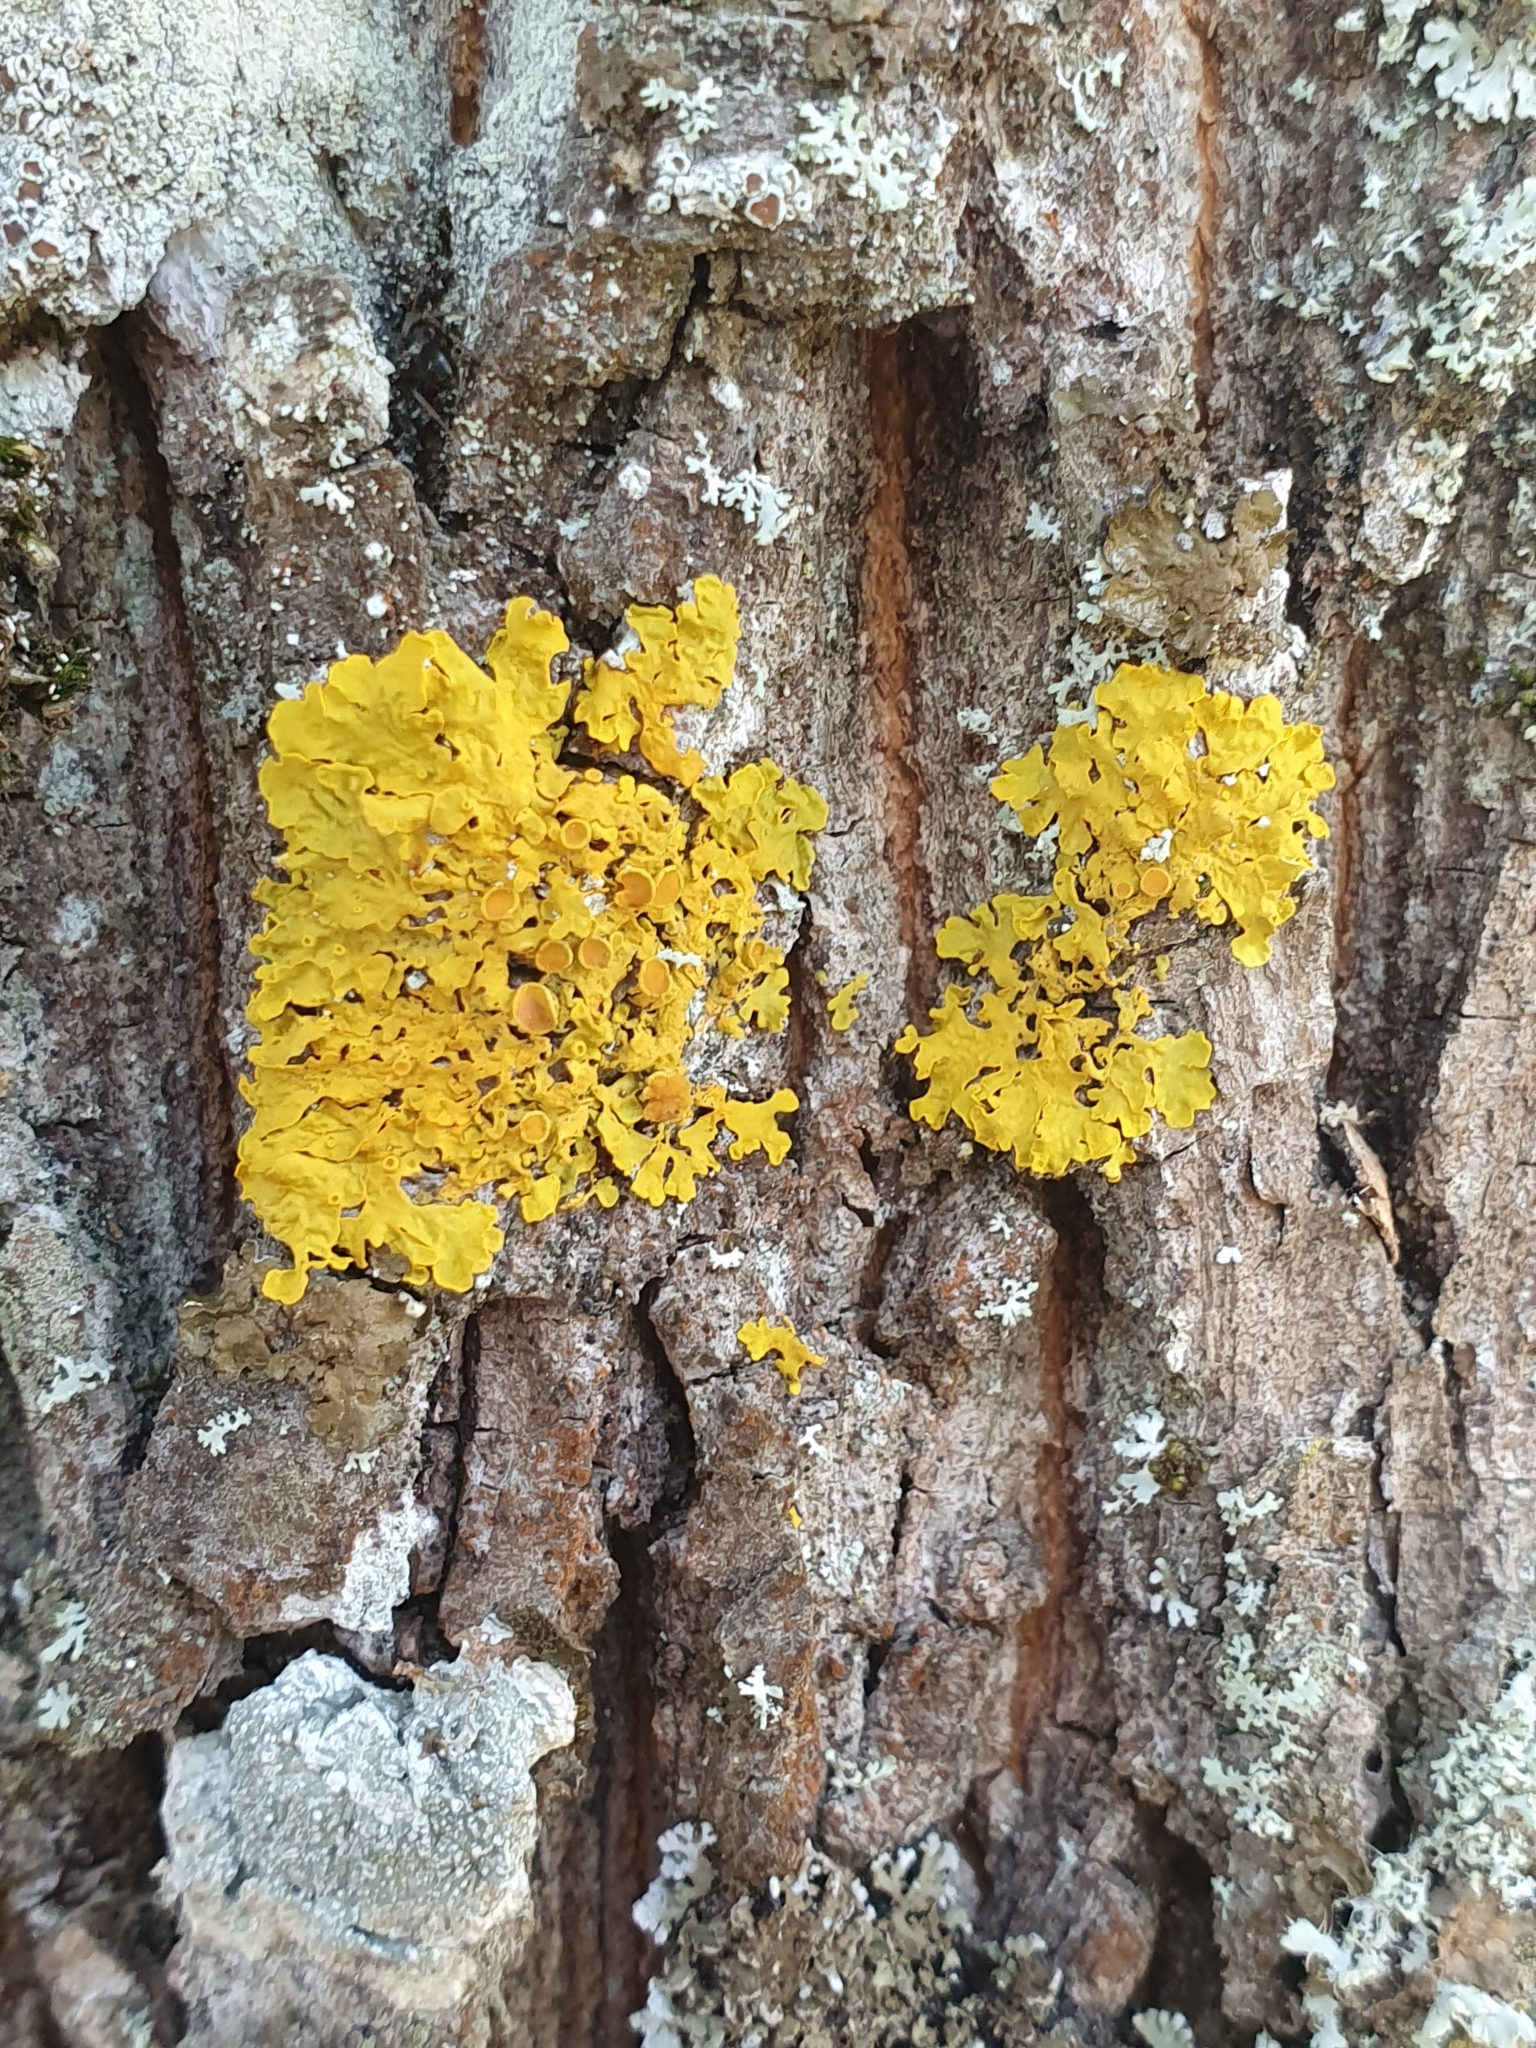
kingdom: Fungi
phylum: Ascomycota
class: Lecanoromycetes
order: Teloschistales
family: Teloschistaceae
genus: Xanthoria
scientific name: Xanthoria parietina
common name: Common orange lichen
